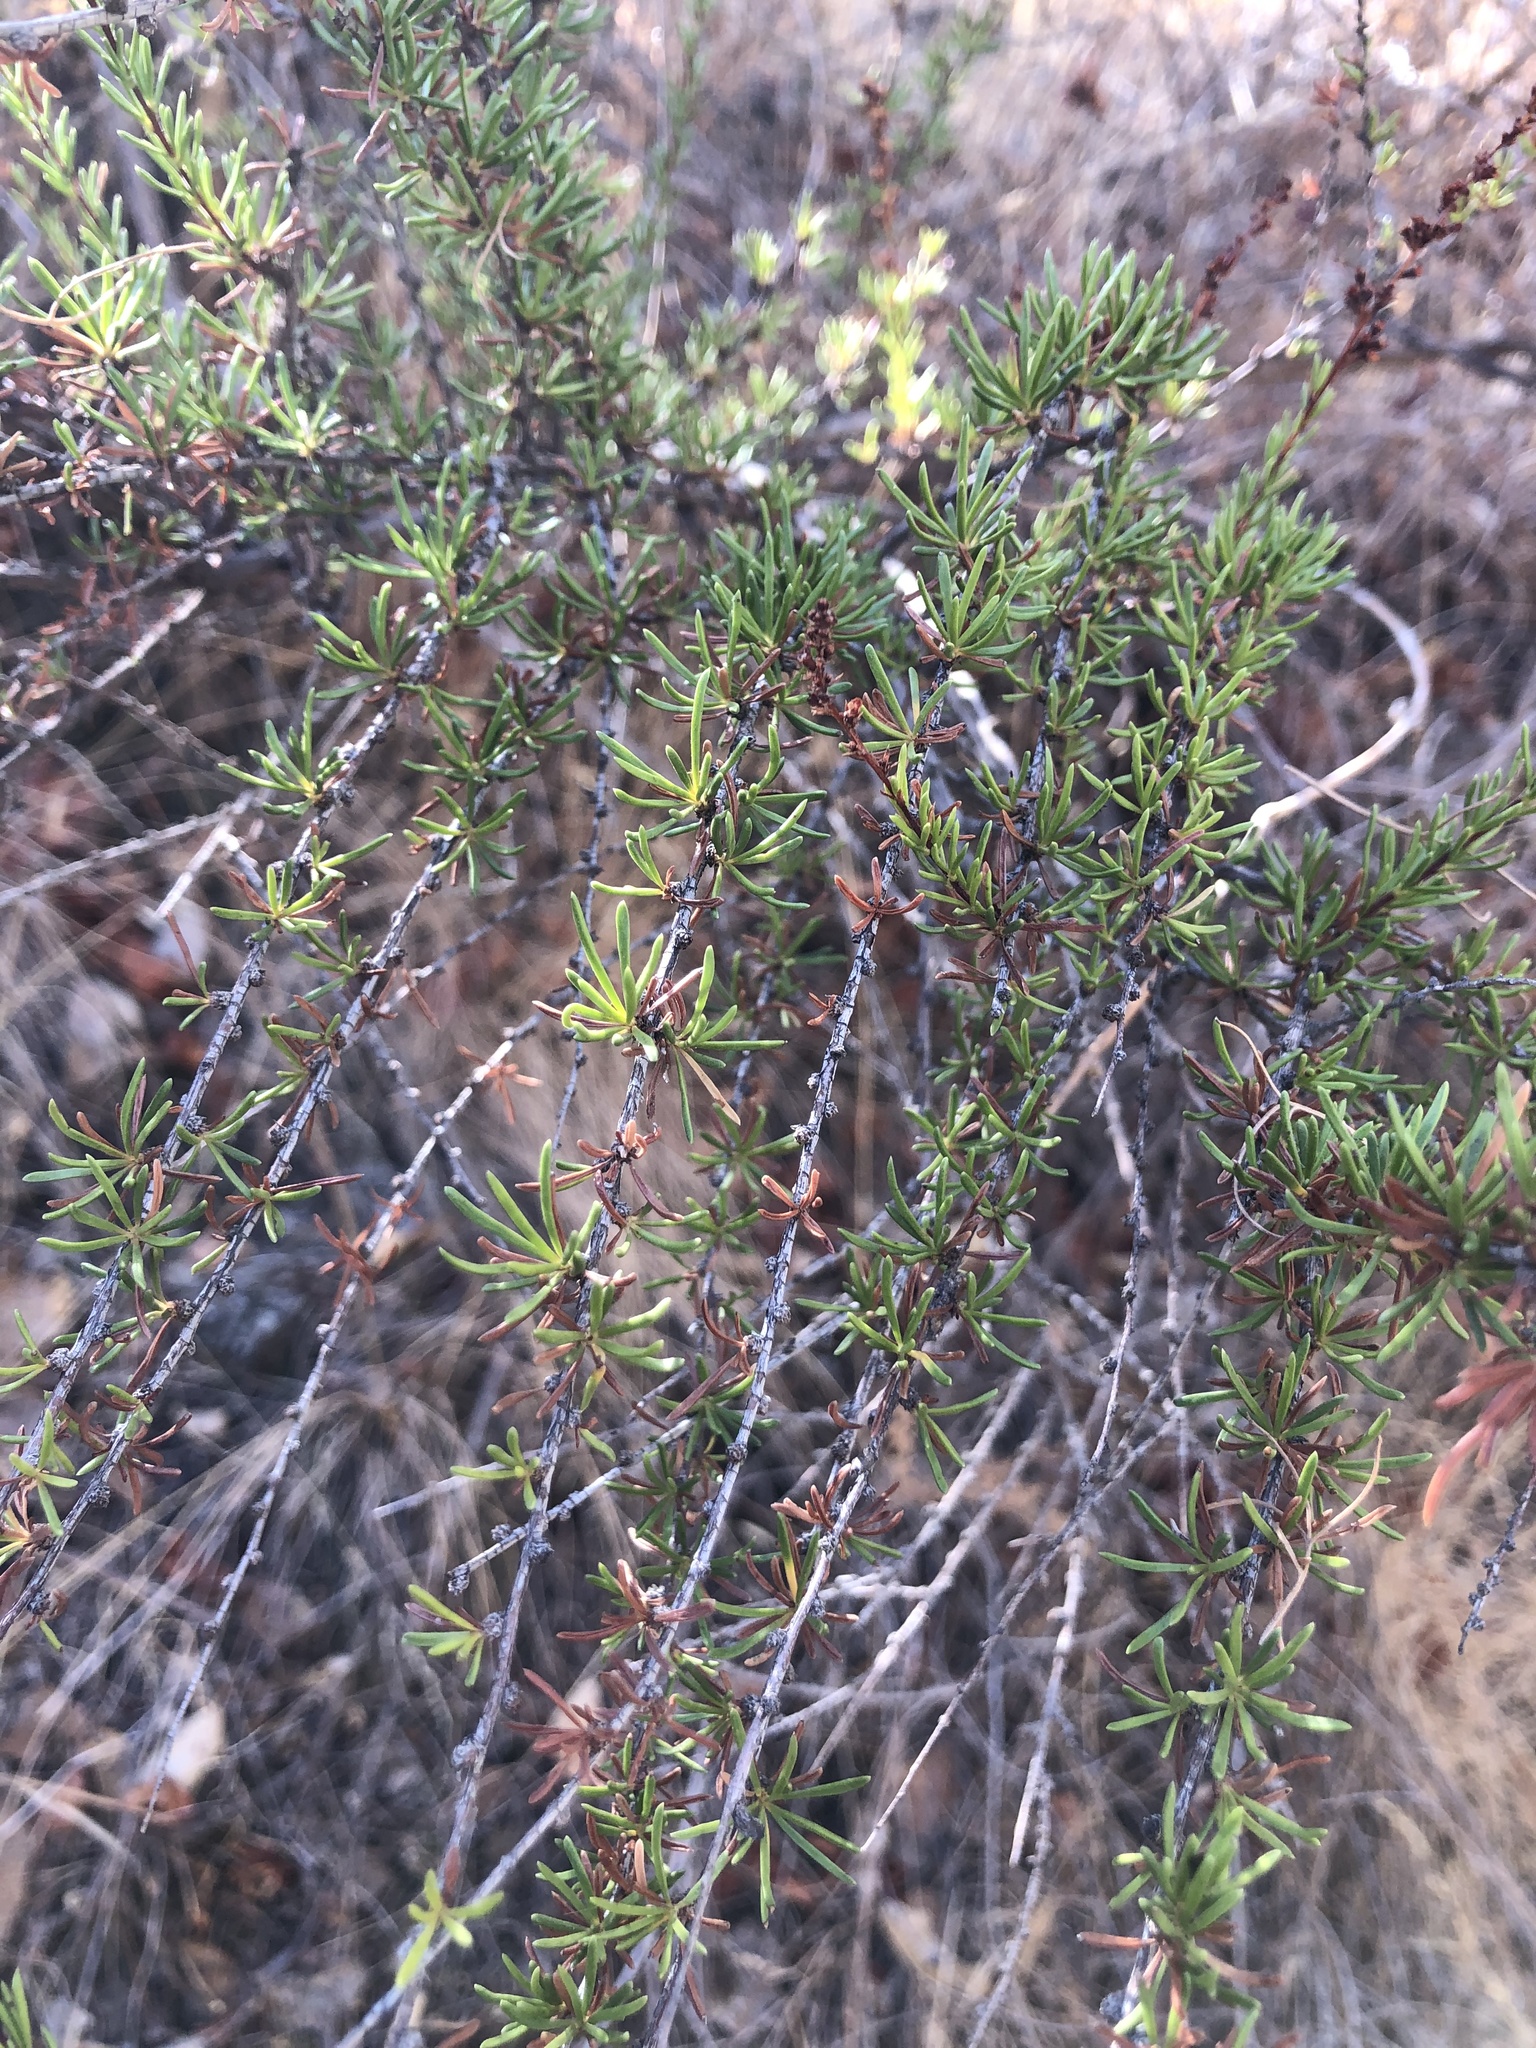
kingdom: Plantae
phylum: Tracheophyta
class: Magnoliopsida
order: Rosales
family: Rosaceae
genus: Adenostoma
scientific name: Adenostoma fasciculatum
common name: Chamise
